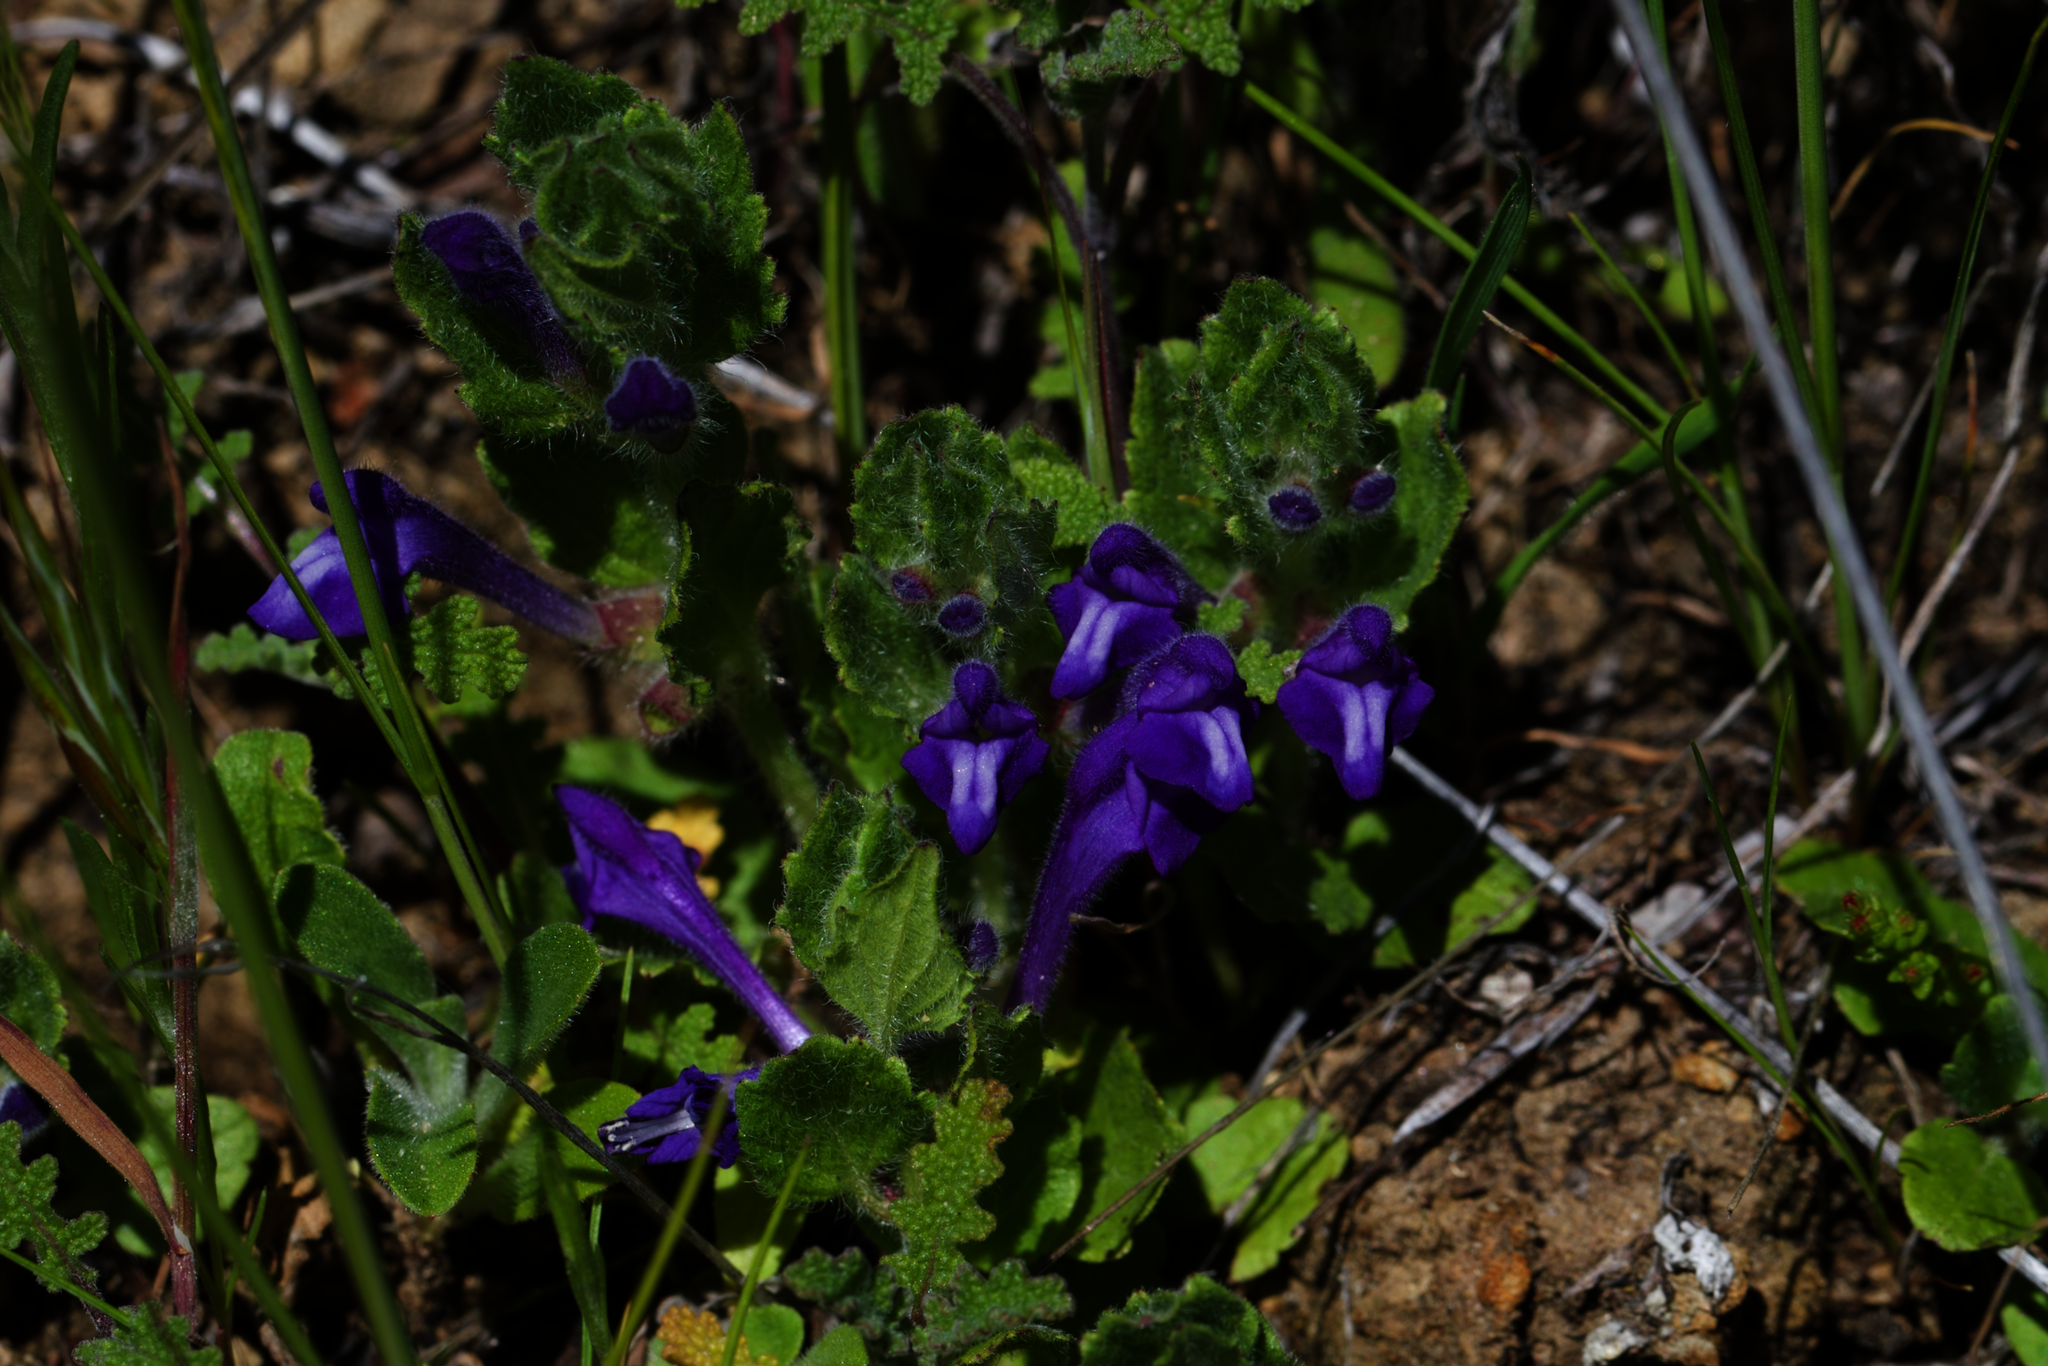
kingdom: Plantae
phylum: Tracheophyta
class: Magnoliopsida
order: Lamiales
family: Lamiaceae
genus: Scutellaria
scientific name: Scutellaria tuberosa
